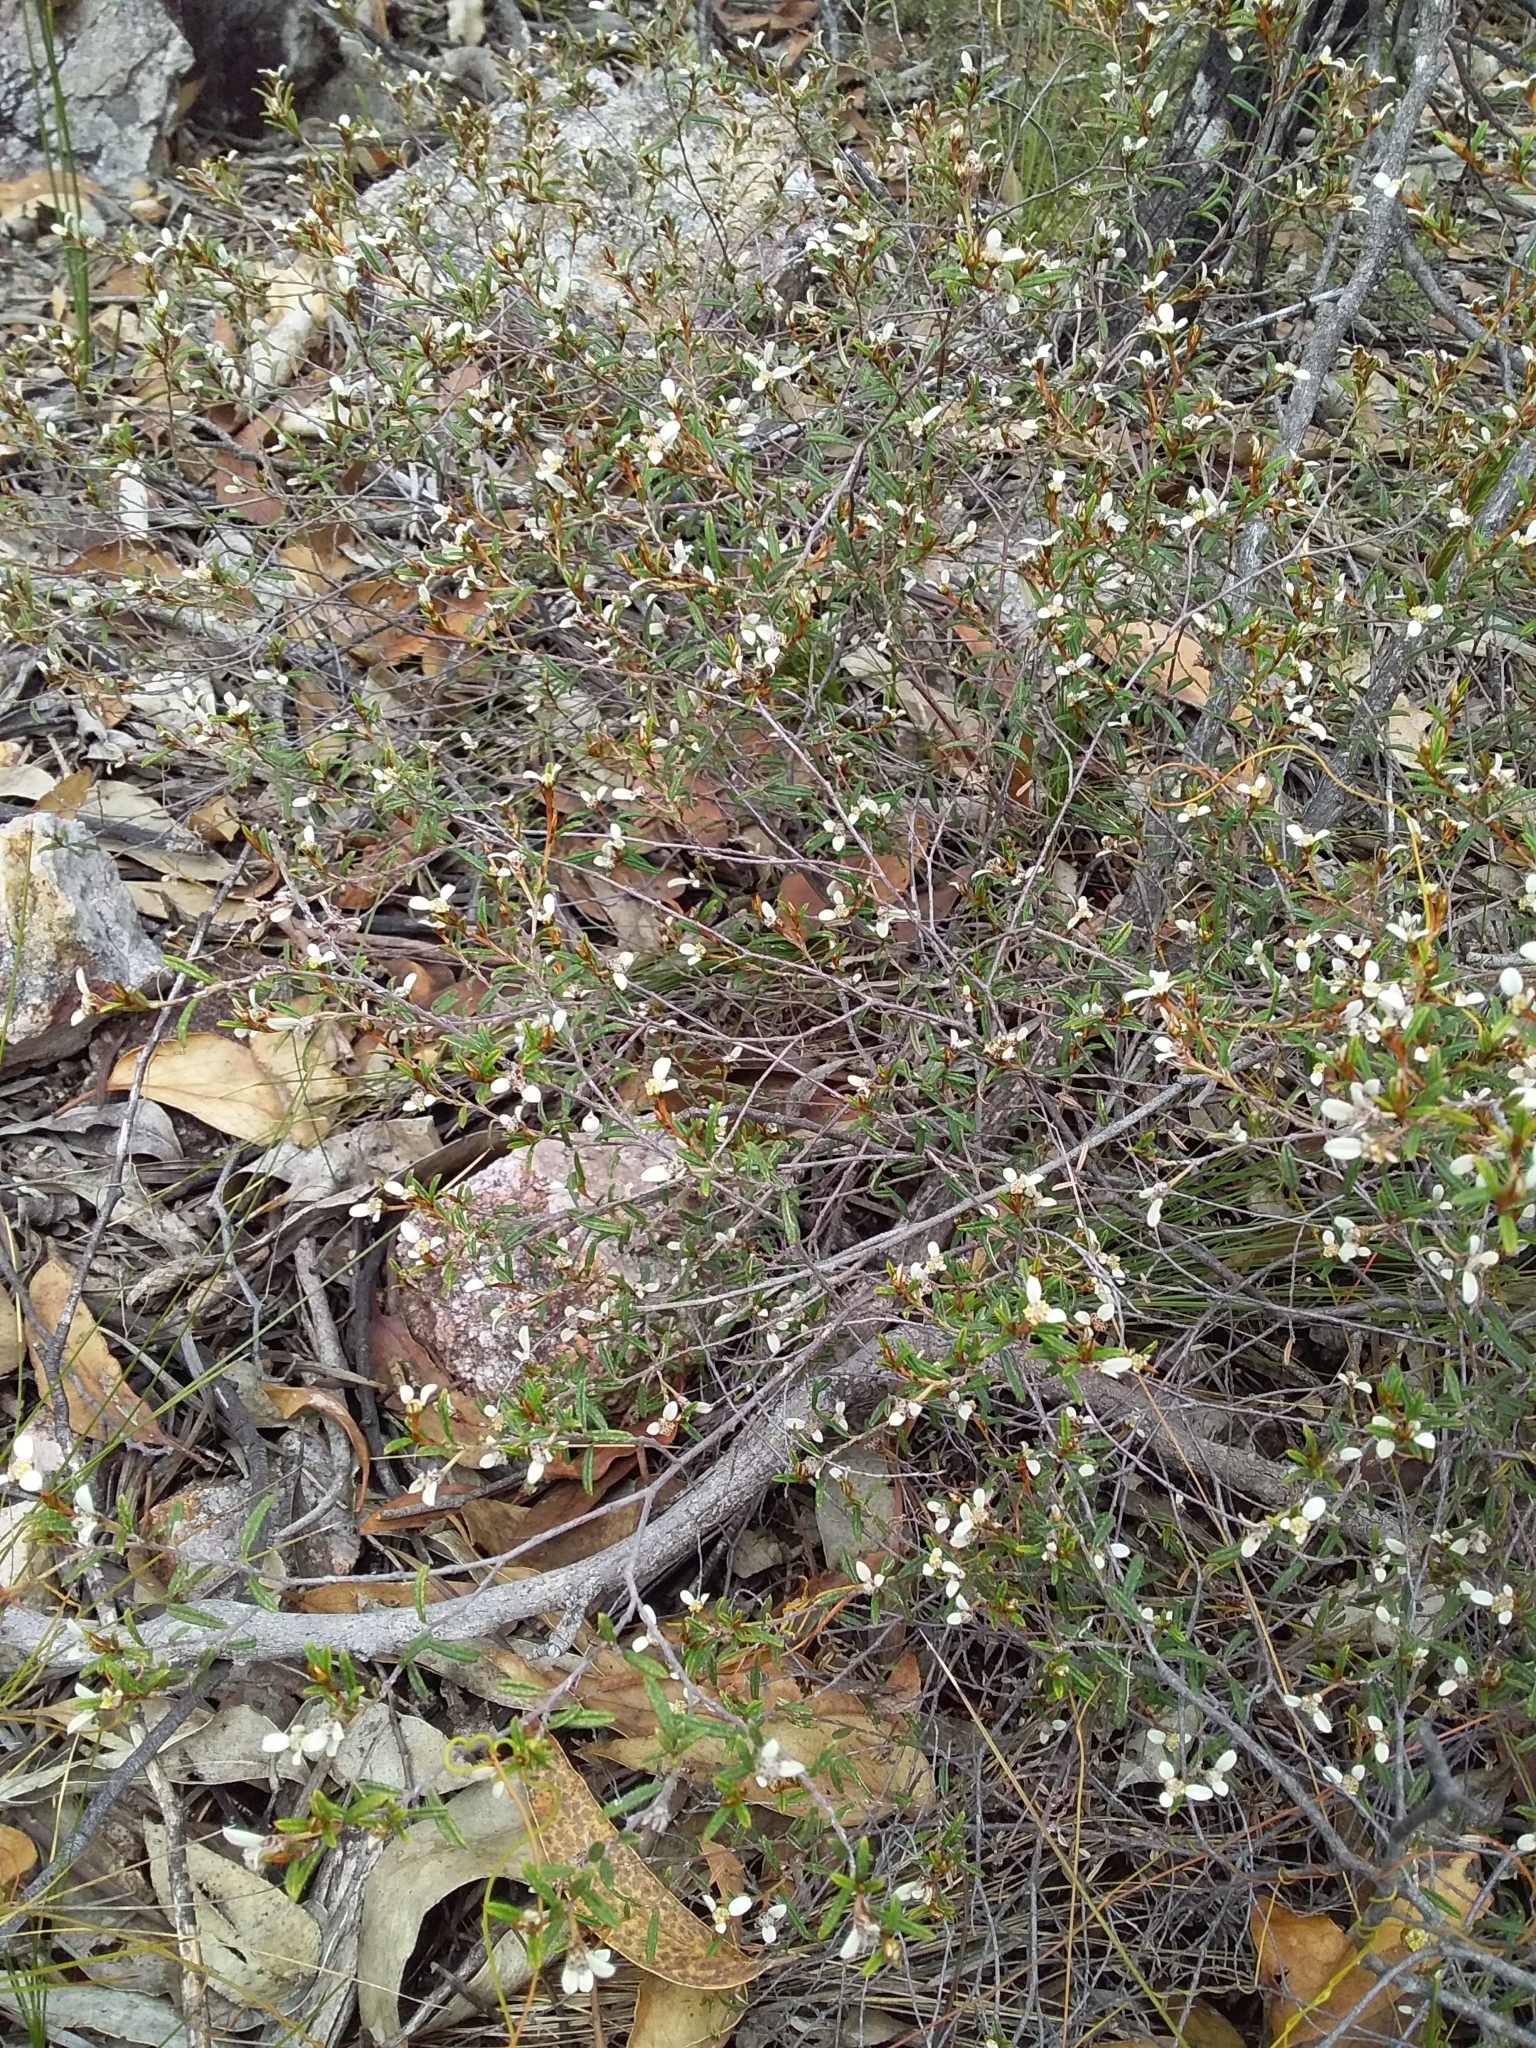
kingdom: Plantae
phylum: Tracheophyta
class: Magnoliopsida
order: Rosales
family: Rhamnaceae
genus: Spyridium
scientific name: Spyridium vexilliferum
